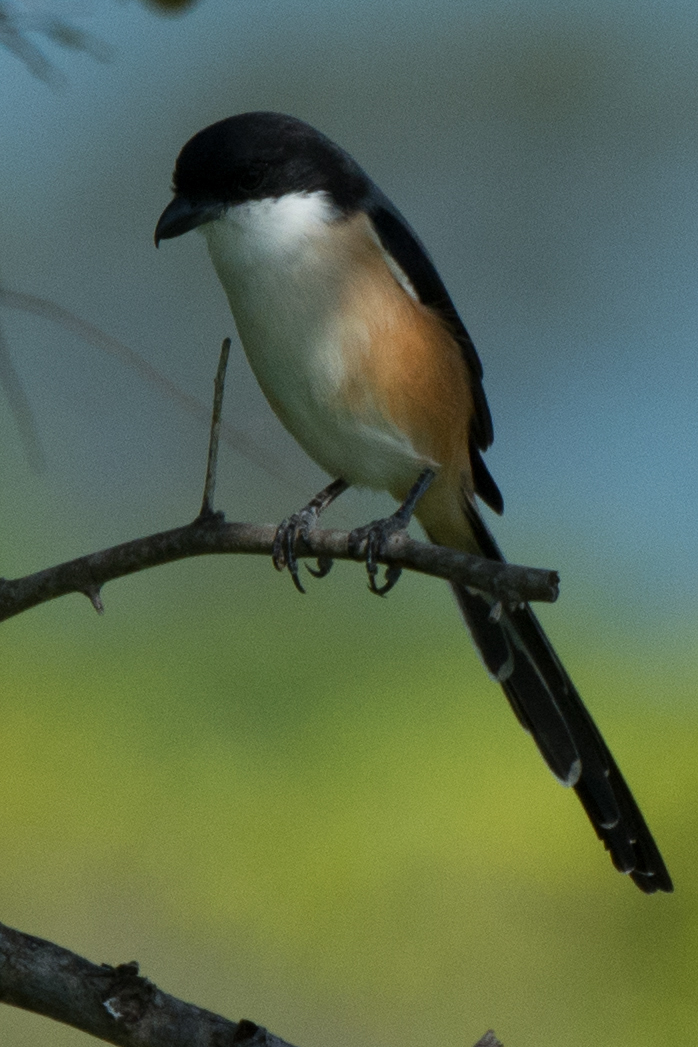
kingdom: Animalia
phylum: Chordata
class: Aves
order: Passeriformes
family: Laniidae
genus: Lanius
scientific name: Lanius schach
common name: Long-tailed shrike
